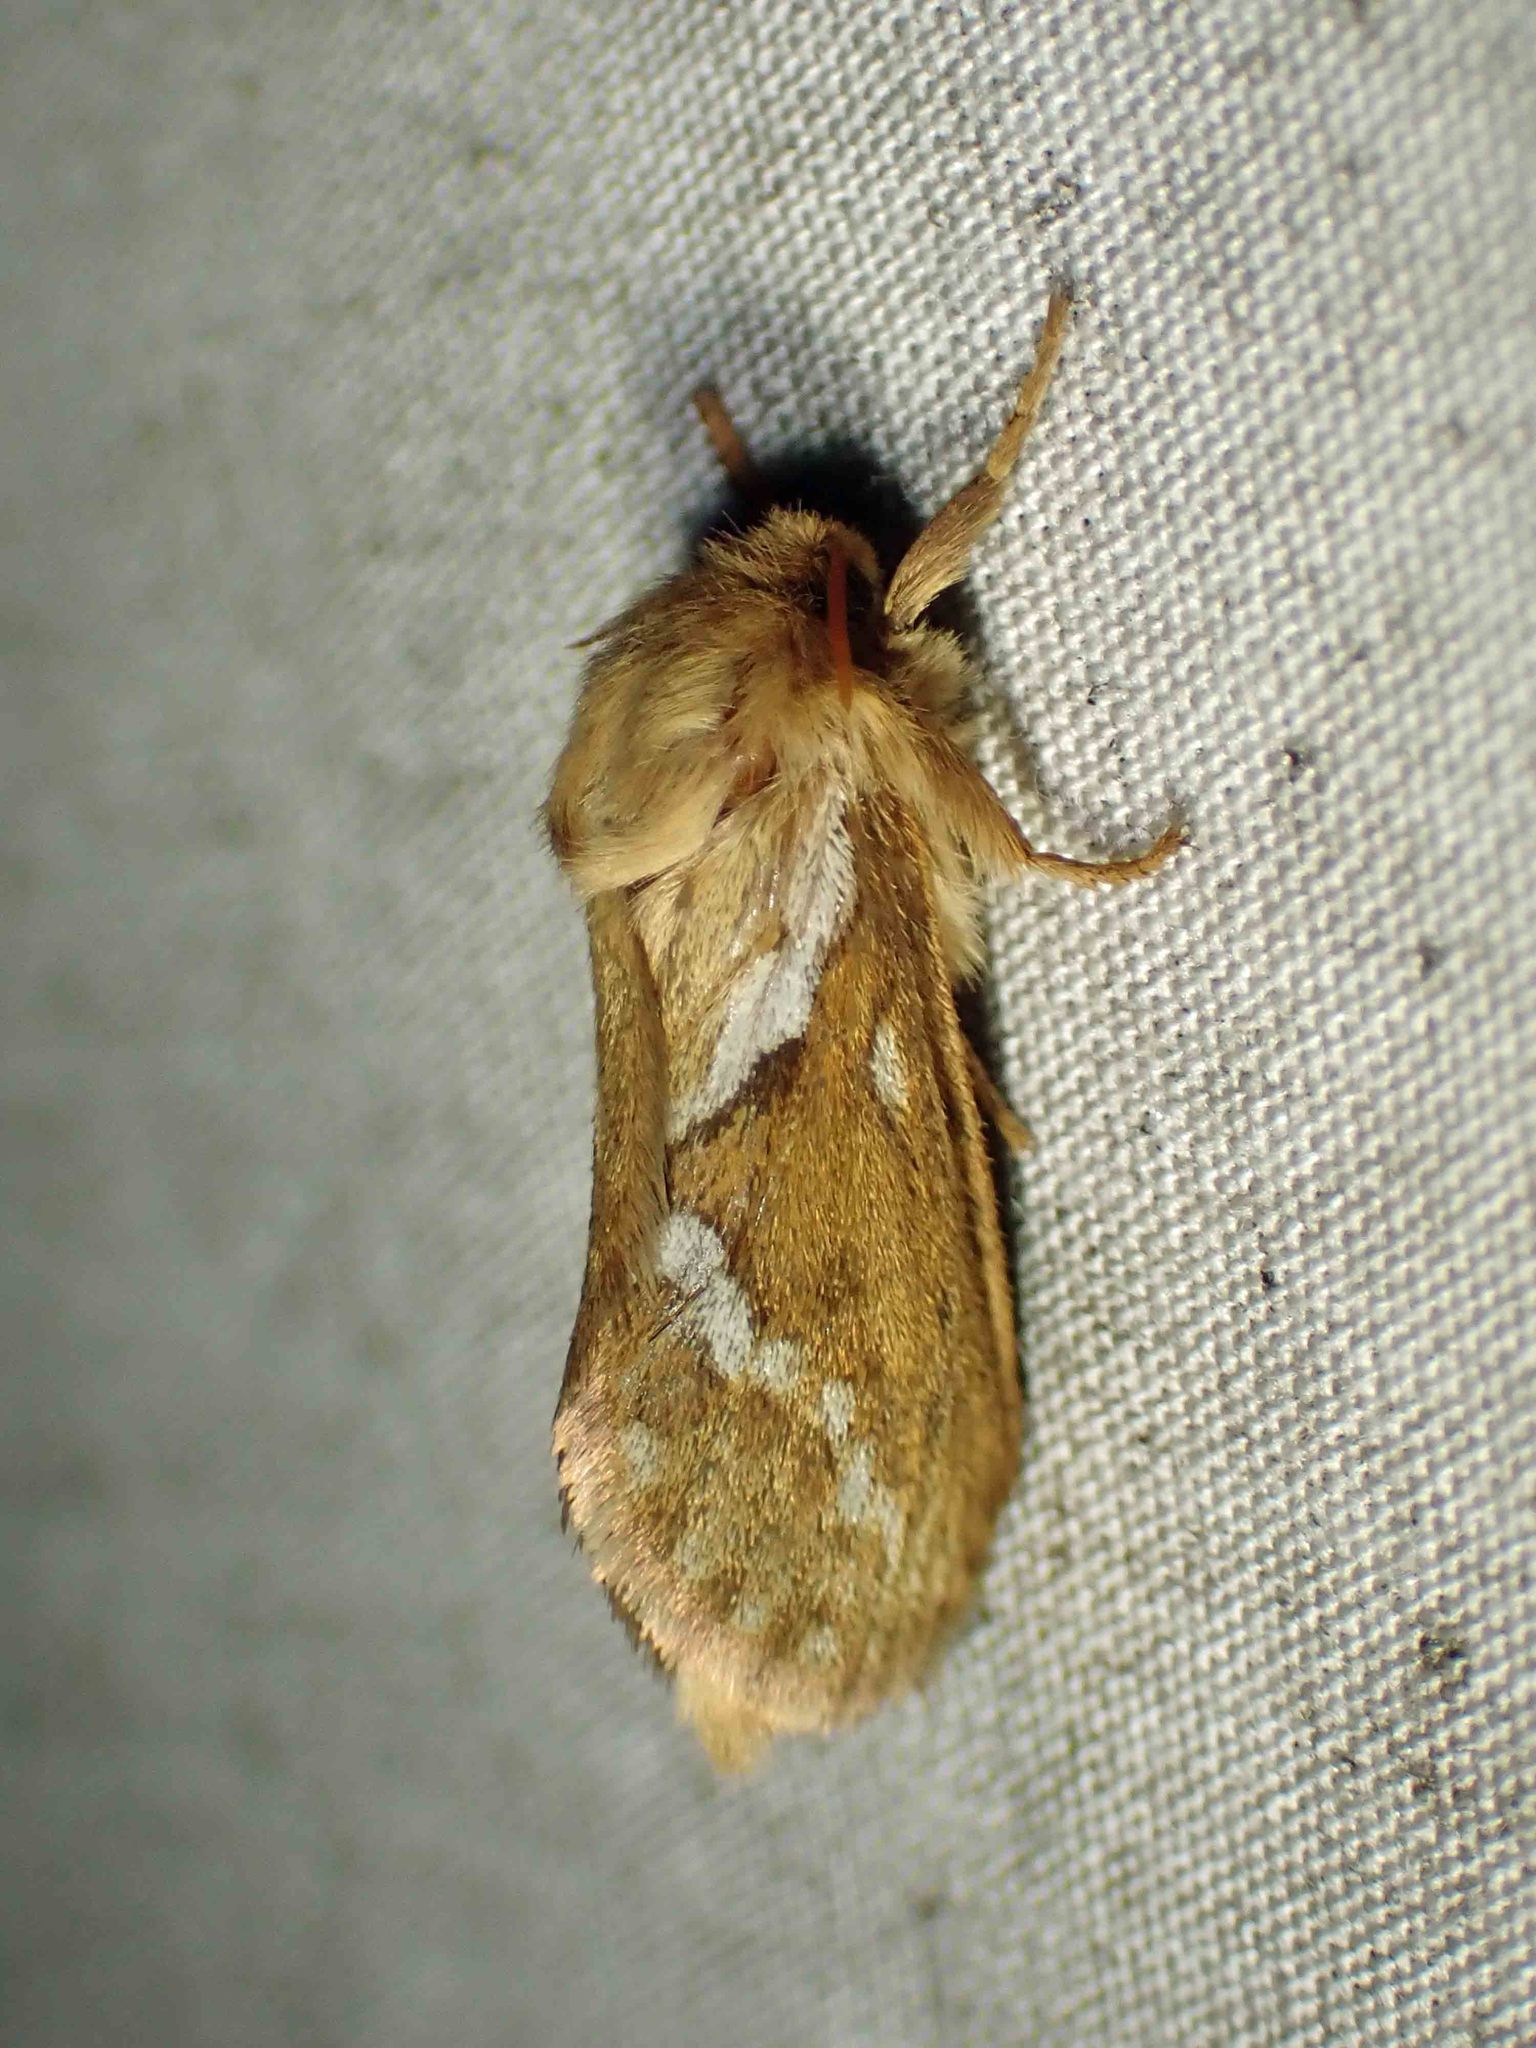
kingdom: Animalia
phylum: Arthropoda
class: Insecta
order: Lepidoptera
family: Hepialidae
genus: Korscheltellus
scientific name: Korscheltellus lupulina
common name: Common swift
